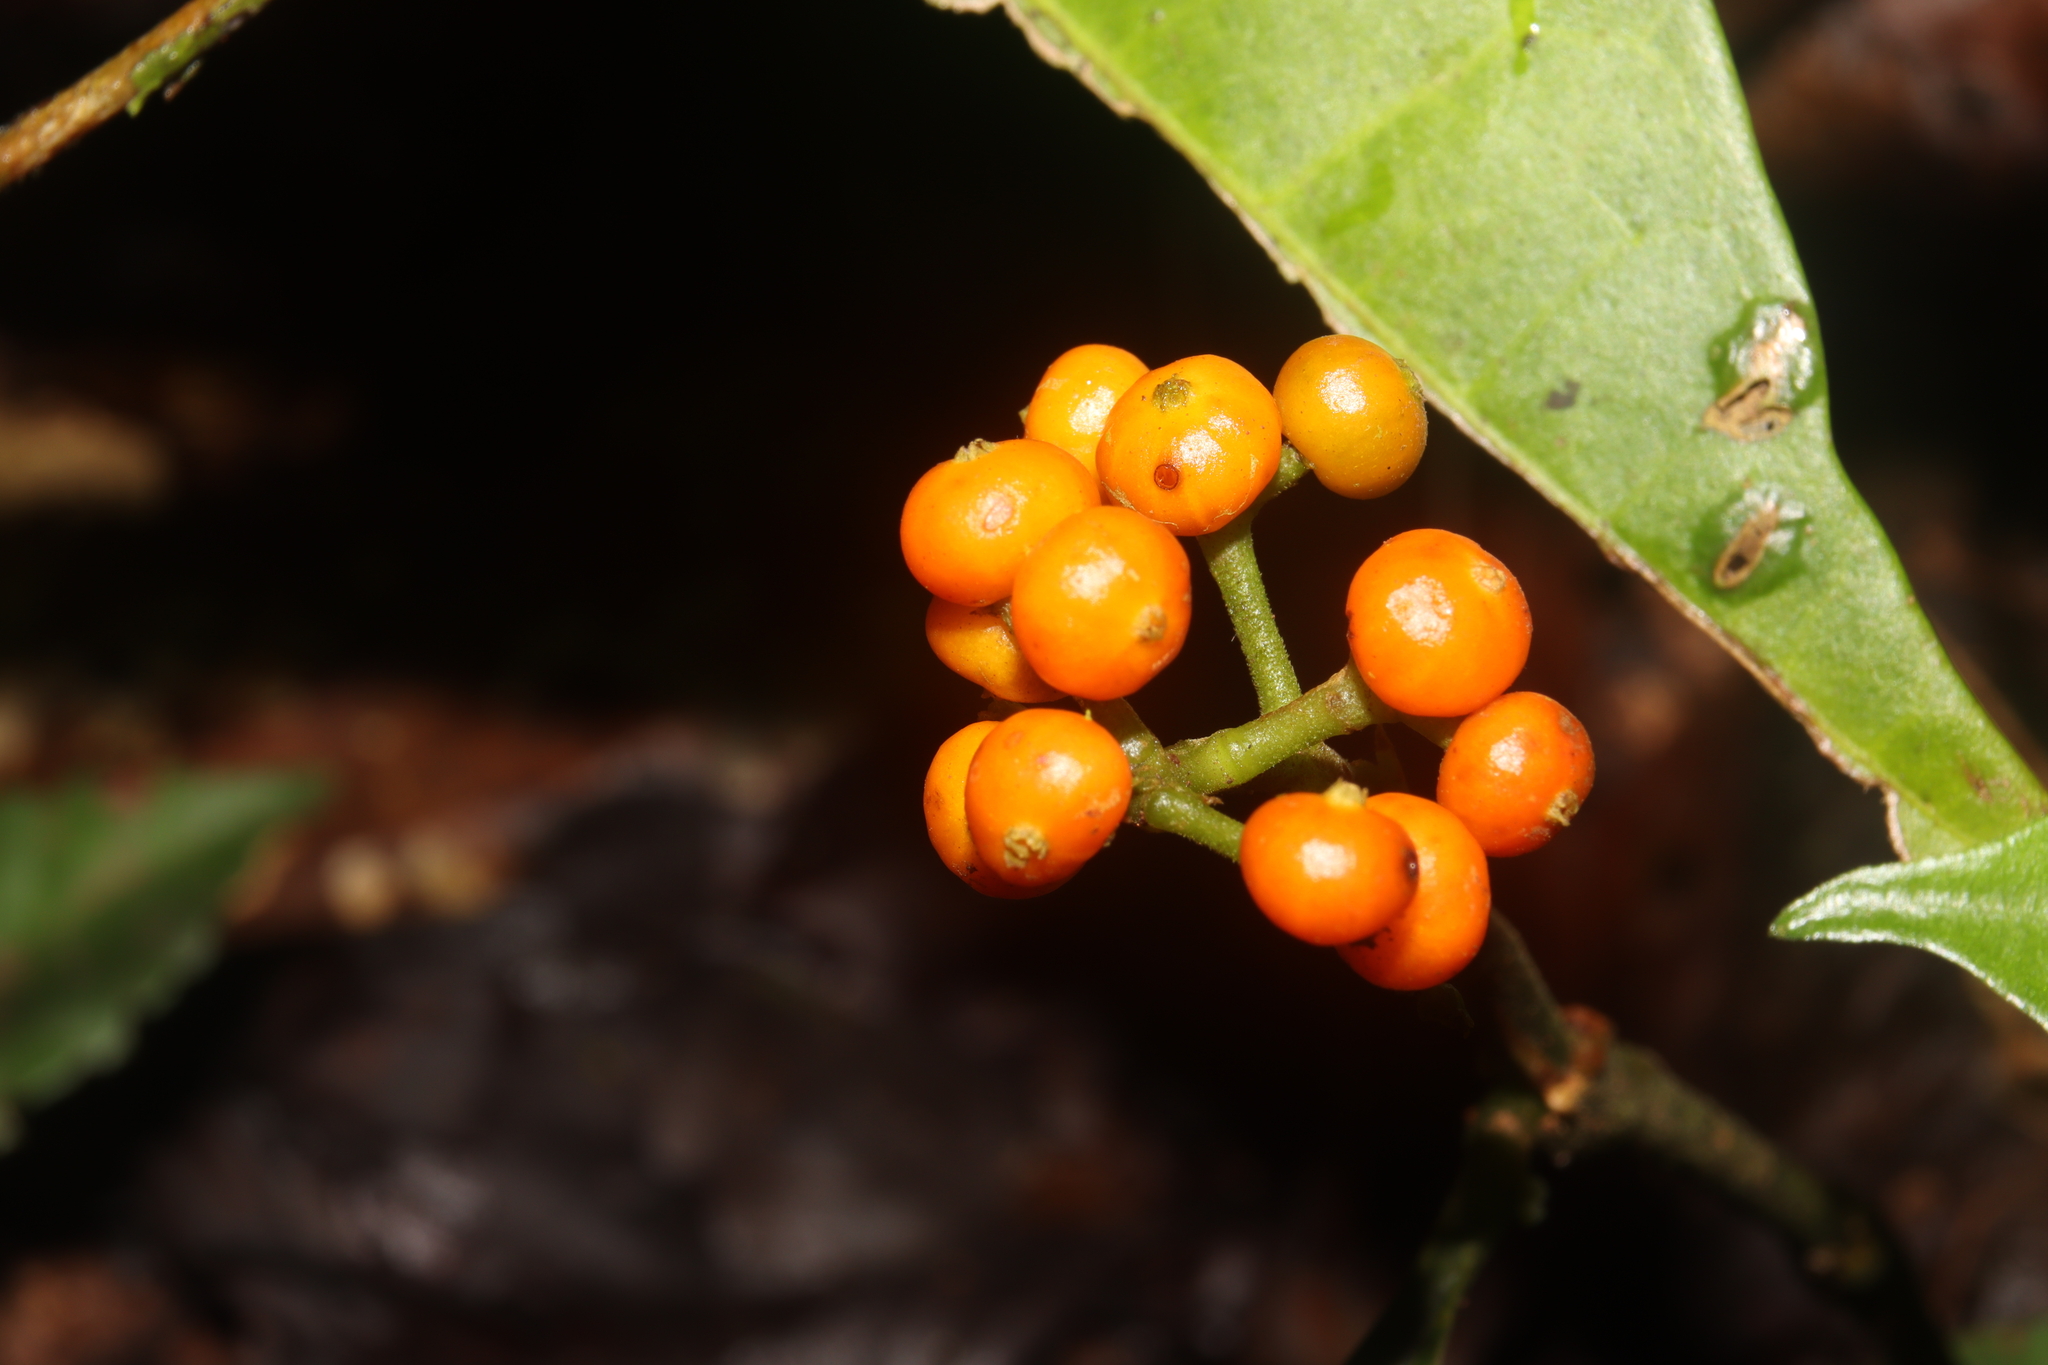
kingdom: Plantae
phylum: Tracheophyta
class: Magnoliopsida
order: Gentianales
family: Rubiaceae
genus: Palicourea
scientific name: Palicourea racemosa
